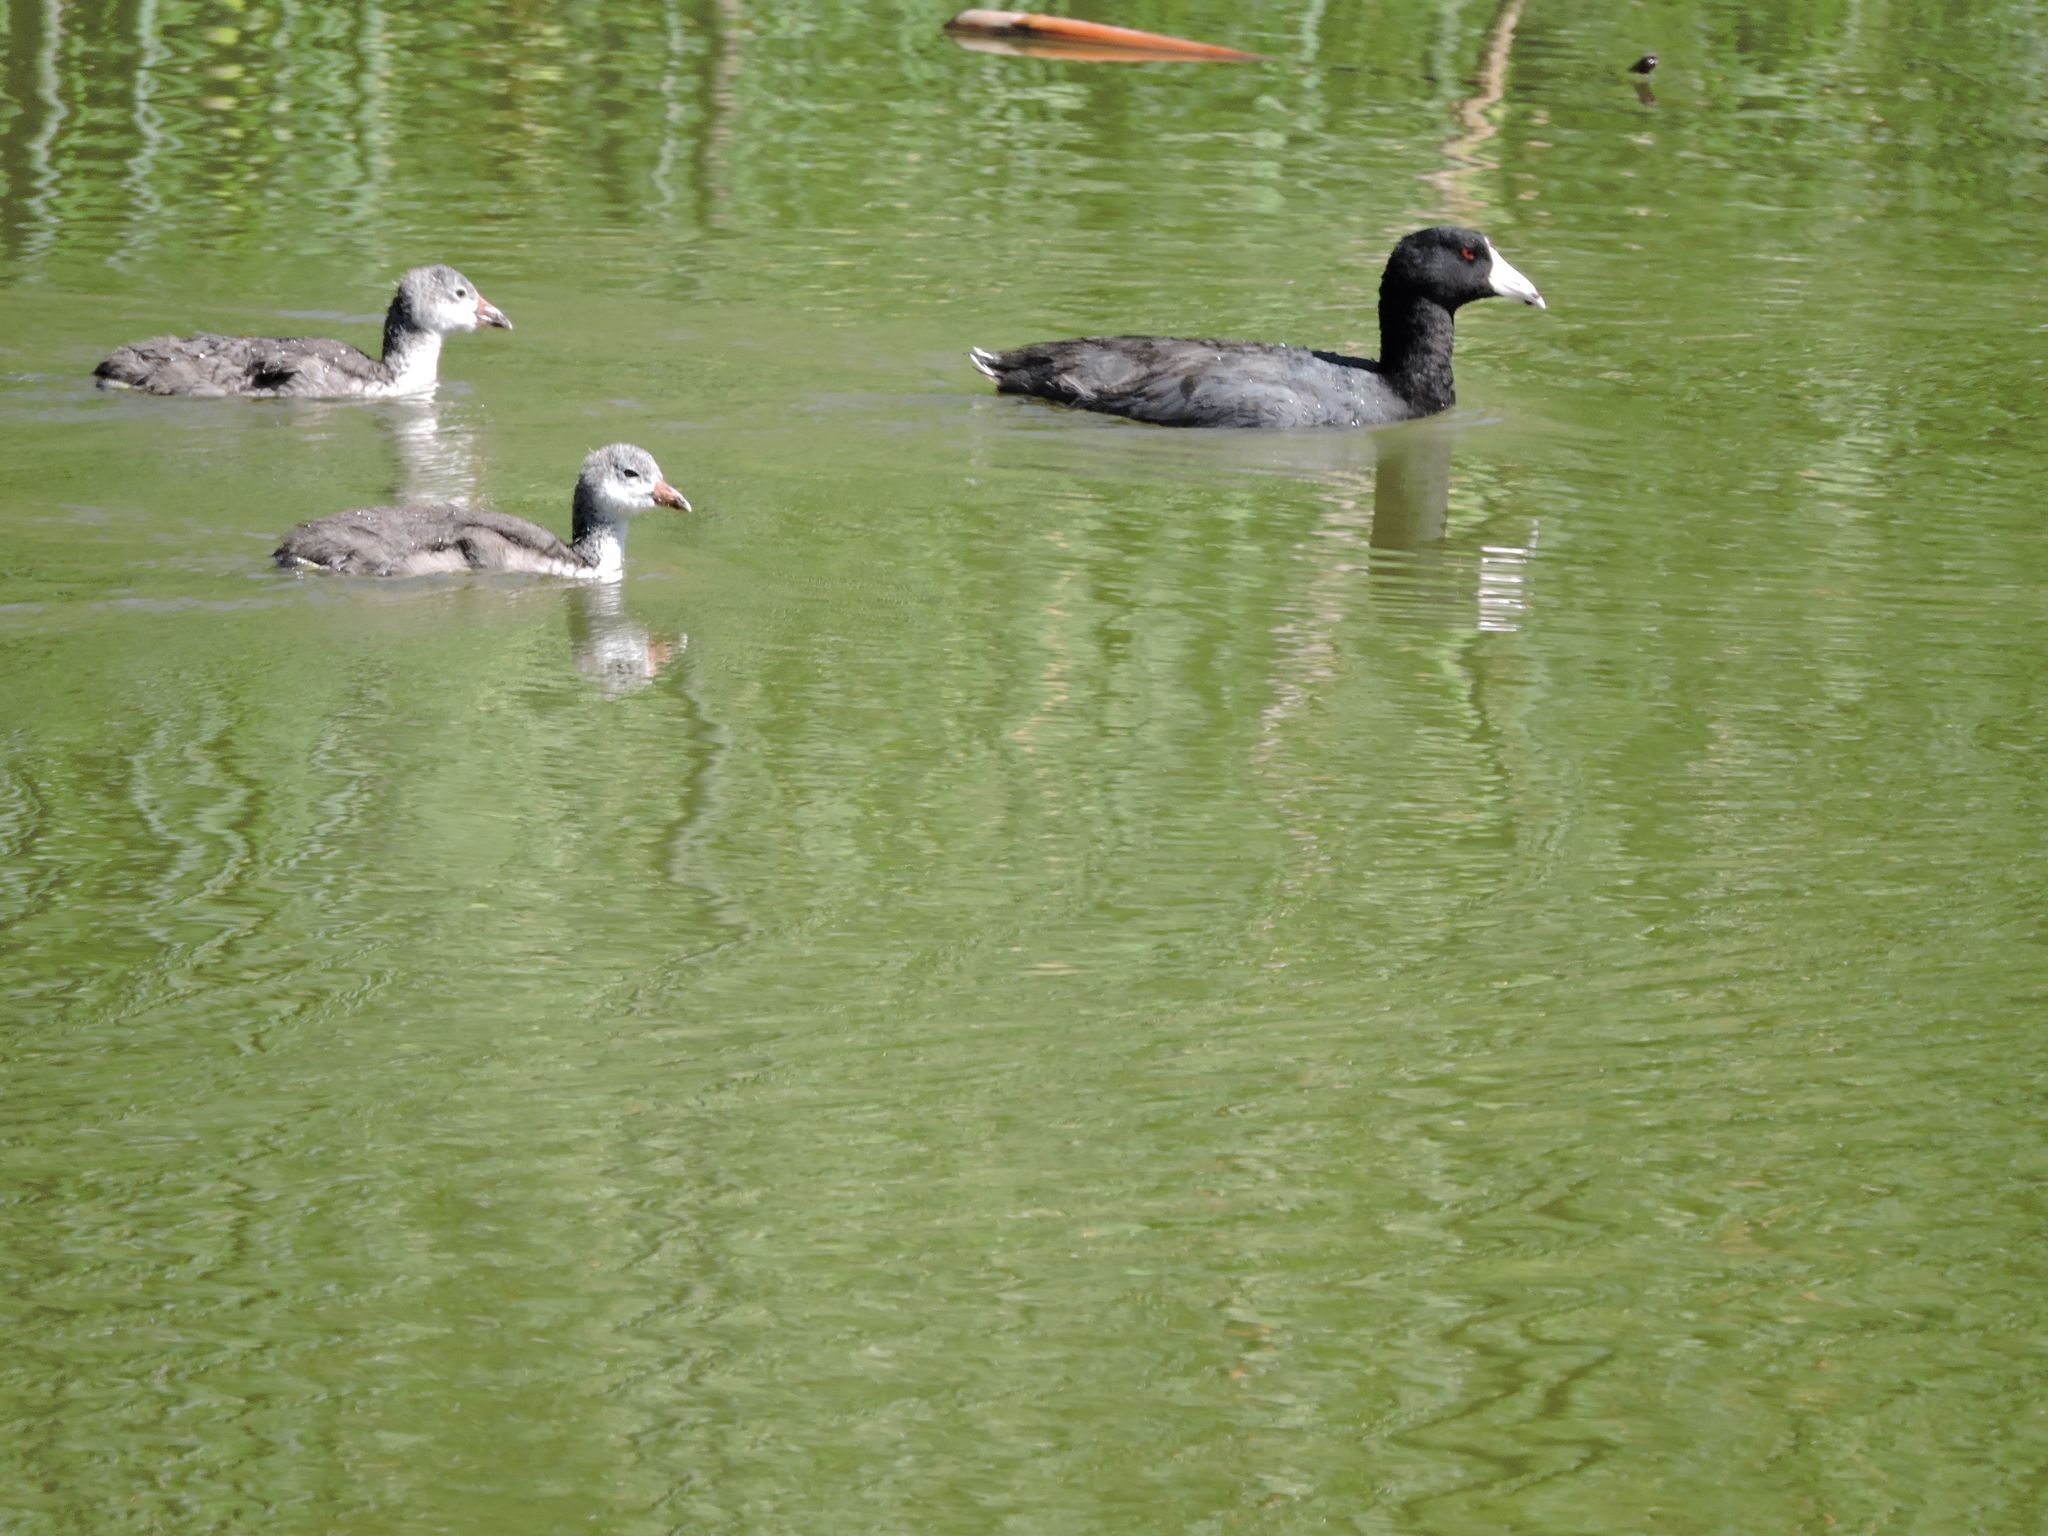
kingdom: Animalia
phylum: Chordata
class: Aves
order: Gruiformes
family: Rallidae
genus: Fulica
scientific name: Fulica americana
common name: American coot
